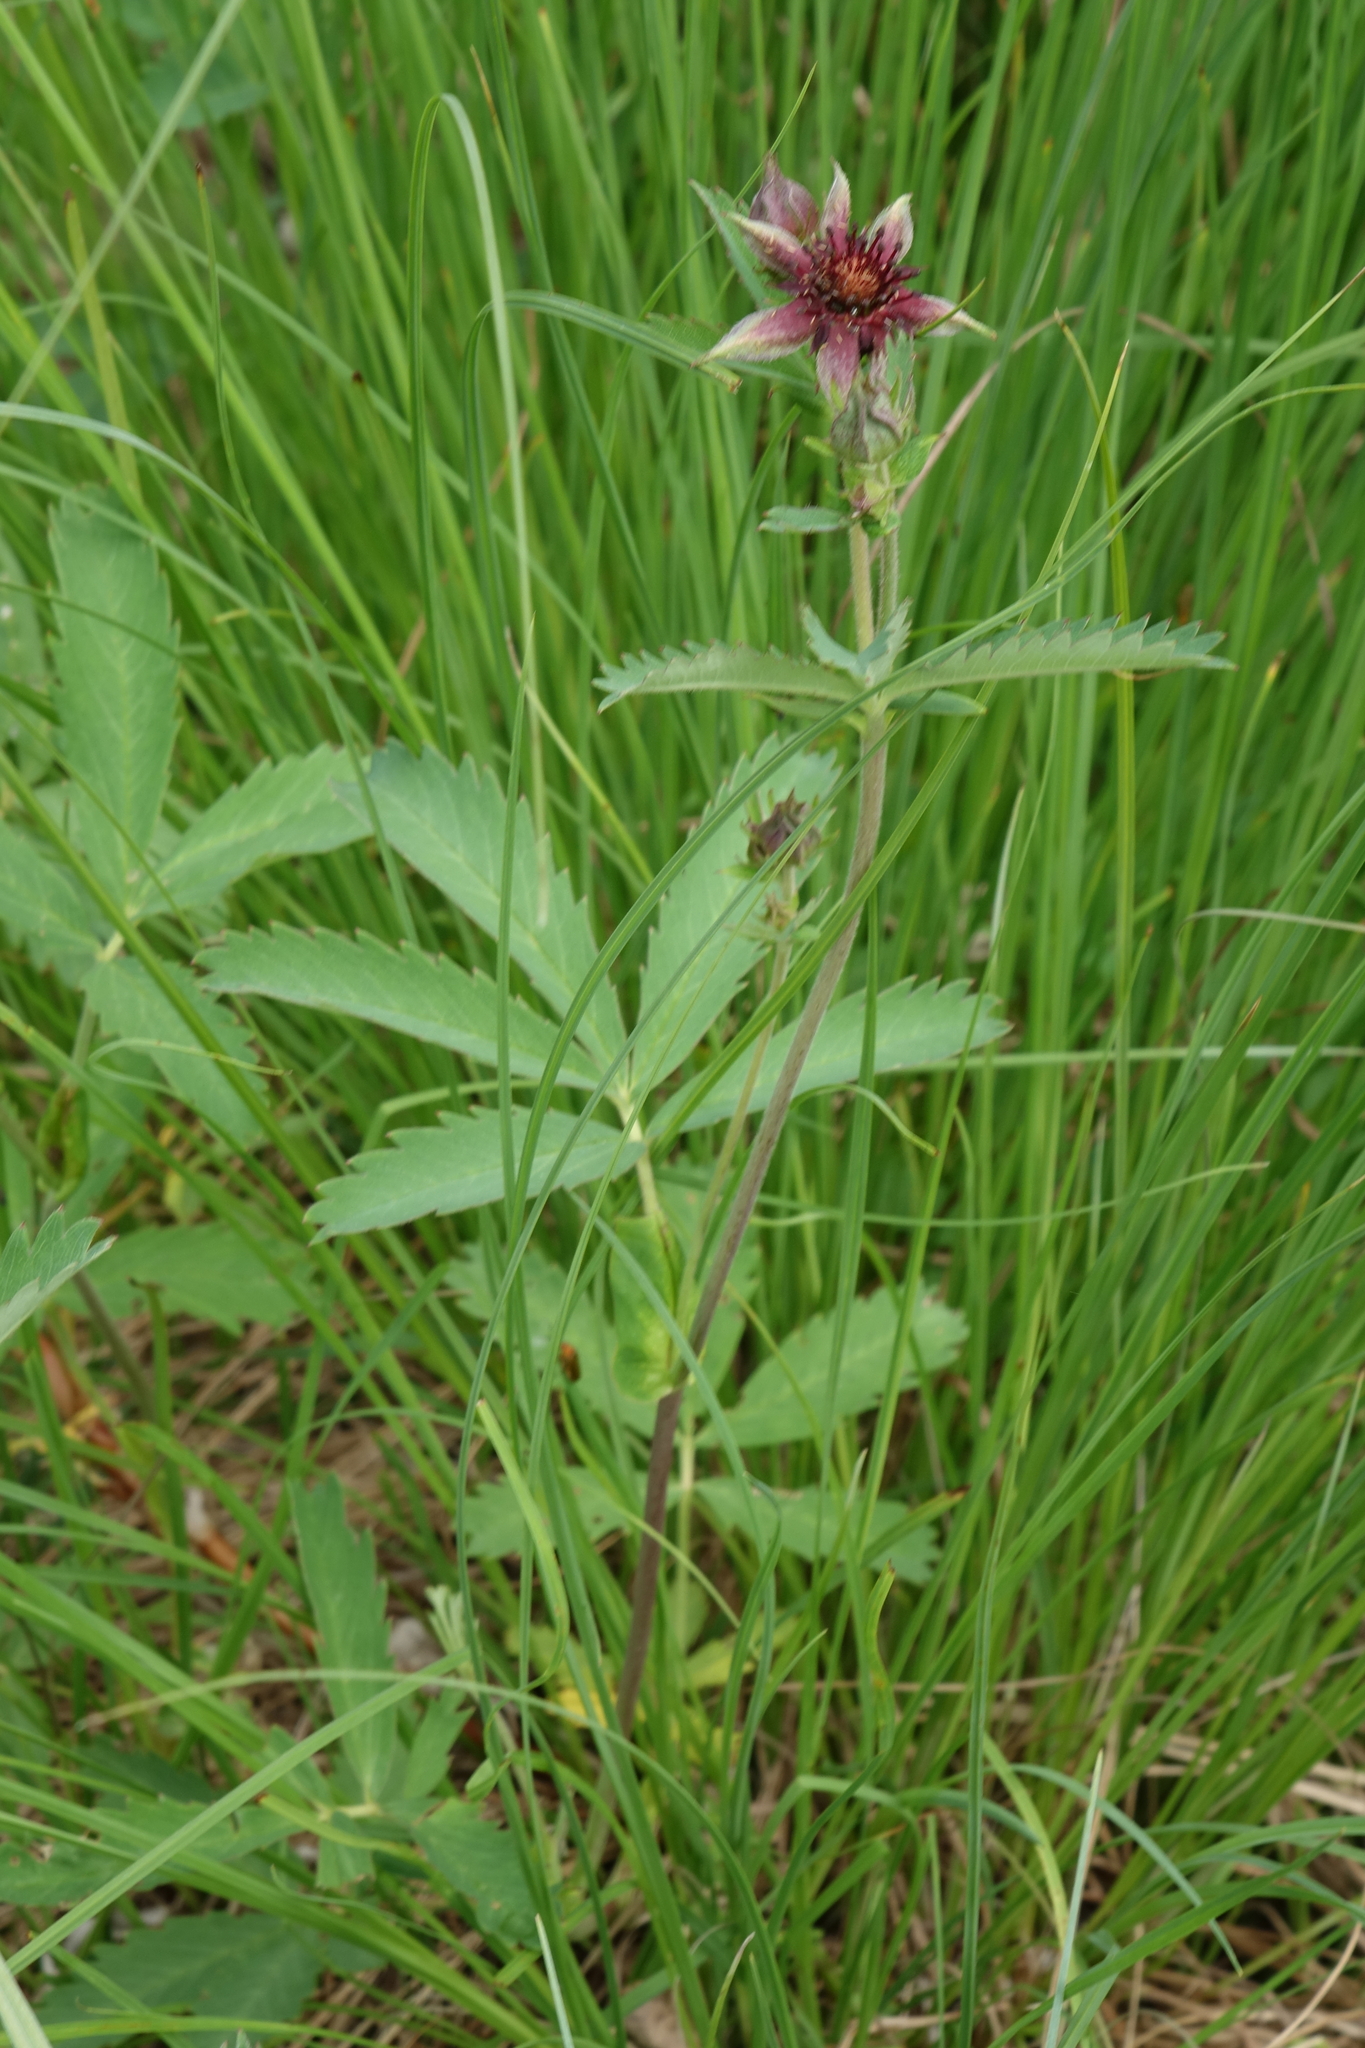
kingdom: Plantae
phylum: Tracheophyta
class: Magnoliopsida
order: Rosales
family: Rosaceae
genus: Comarum
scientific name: Comarum palustre
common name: Marsh cinquefoil
